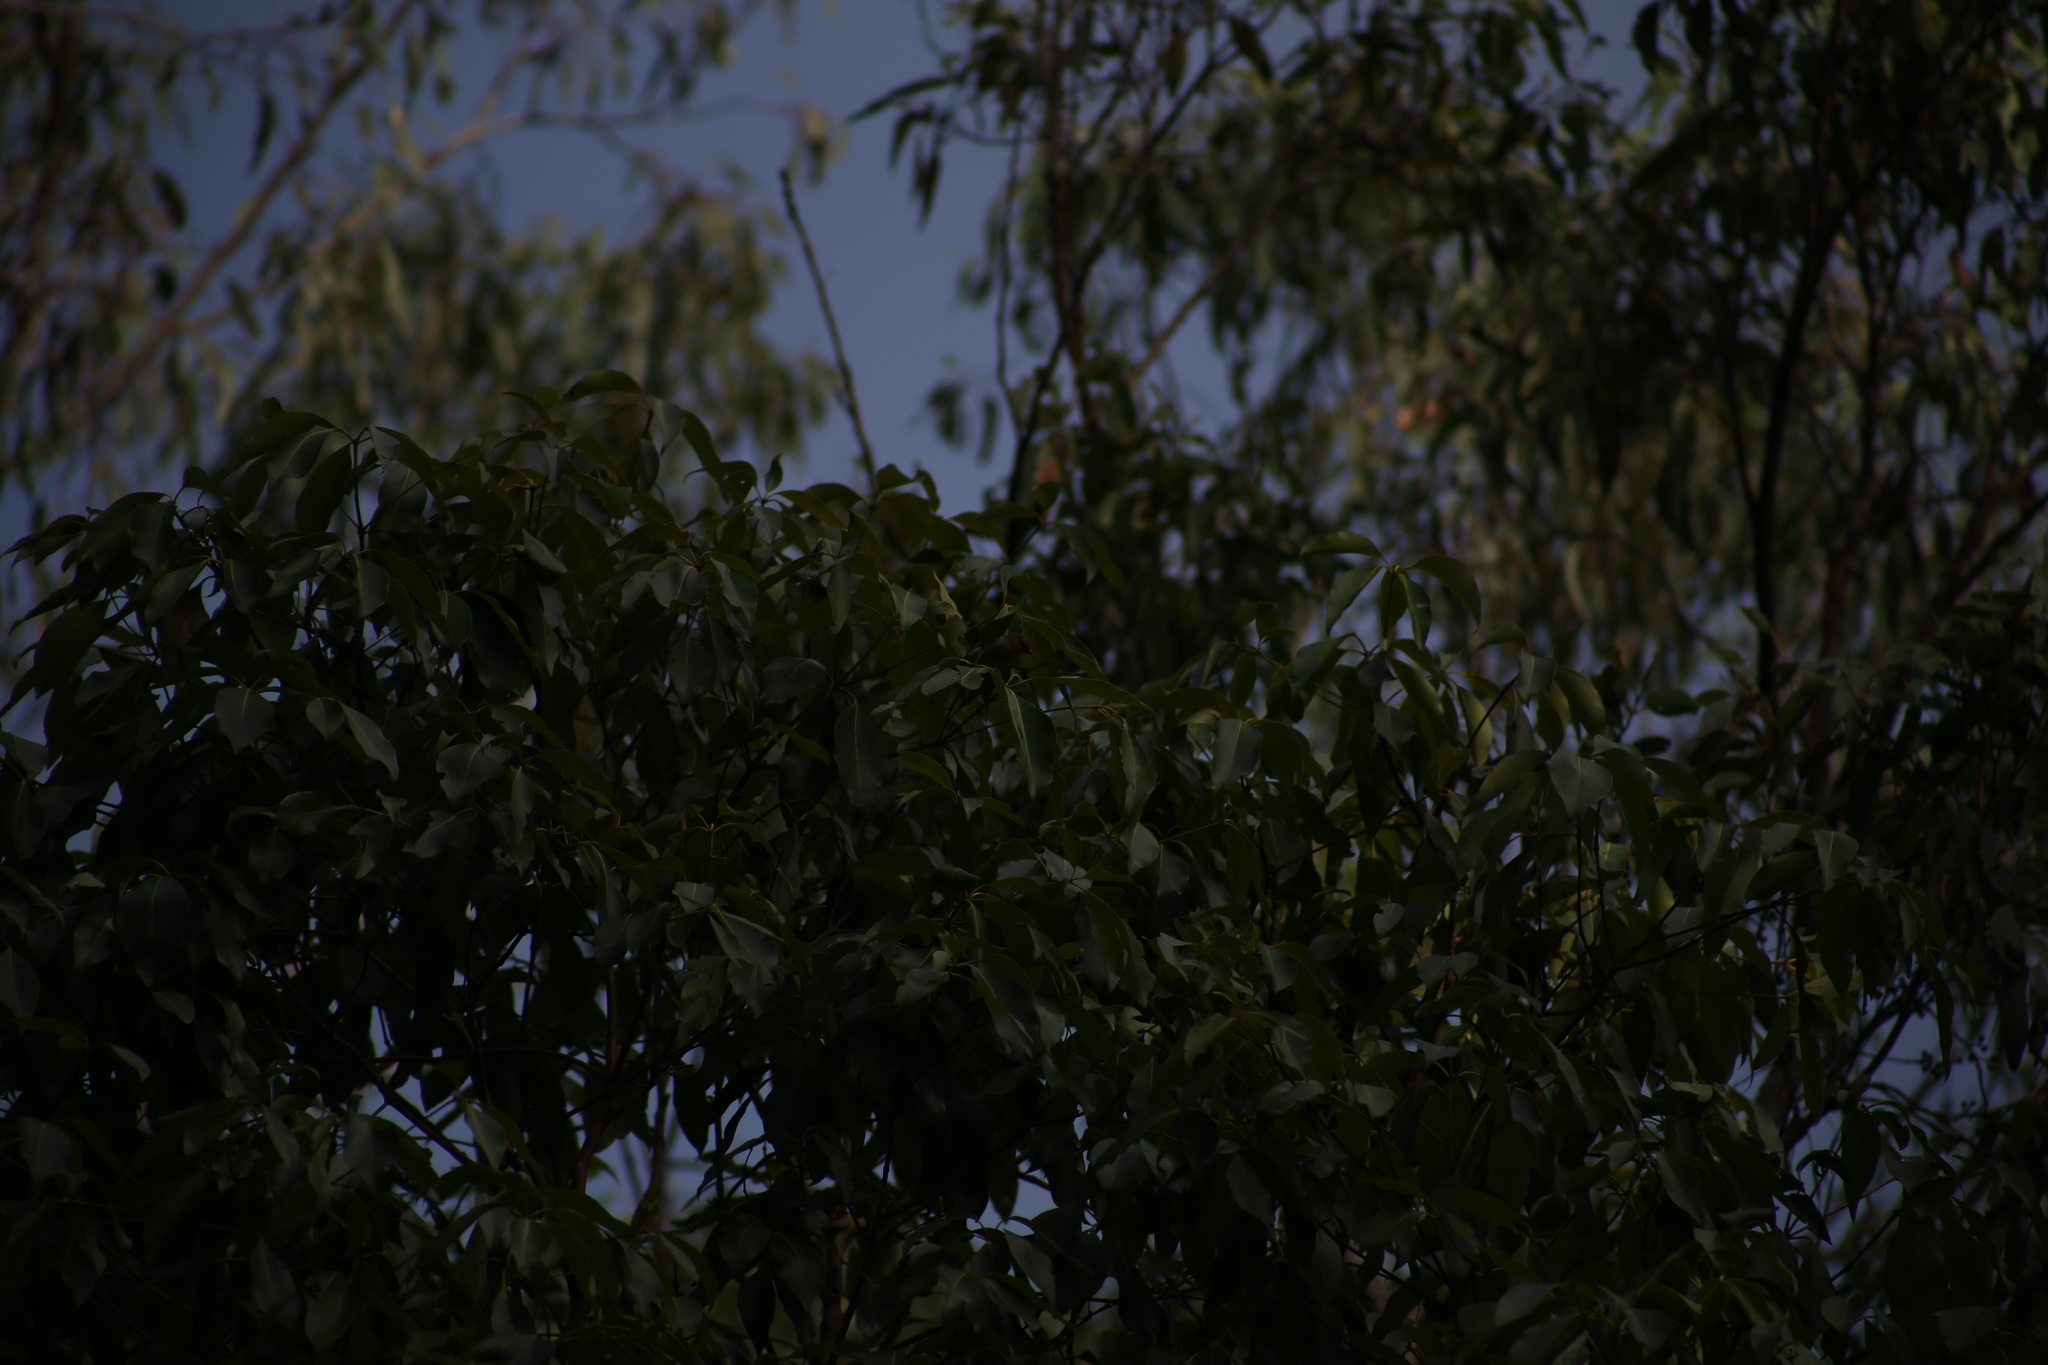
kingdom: Animalia
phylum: Chordata
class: Aves
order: Passeriformes
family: Meliphagidae
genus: Myzomela
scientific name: Myzomela sanguinolenta
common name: Scarlet myzomela
